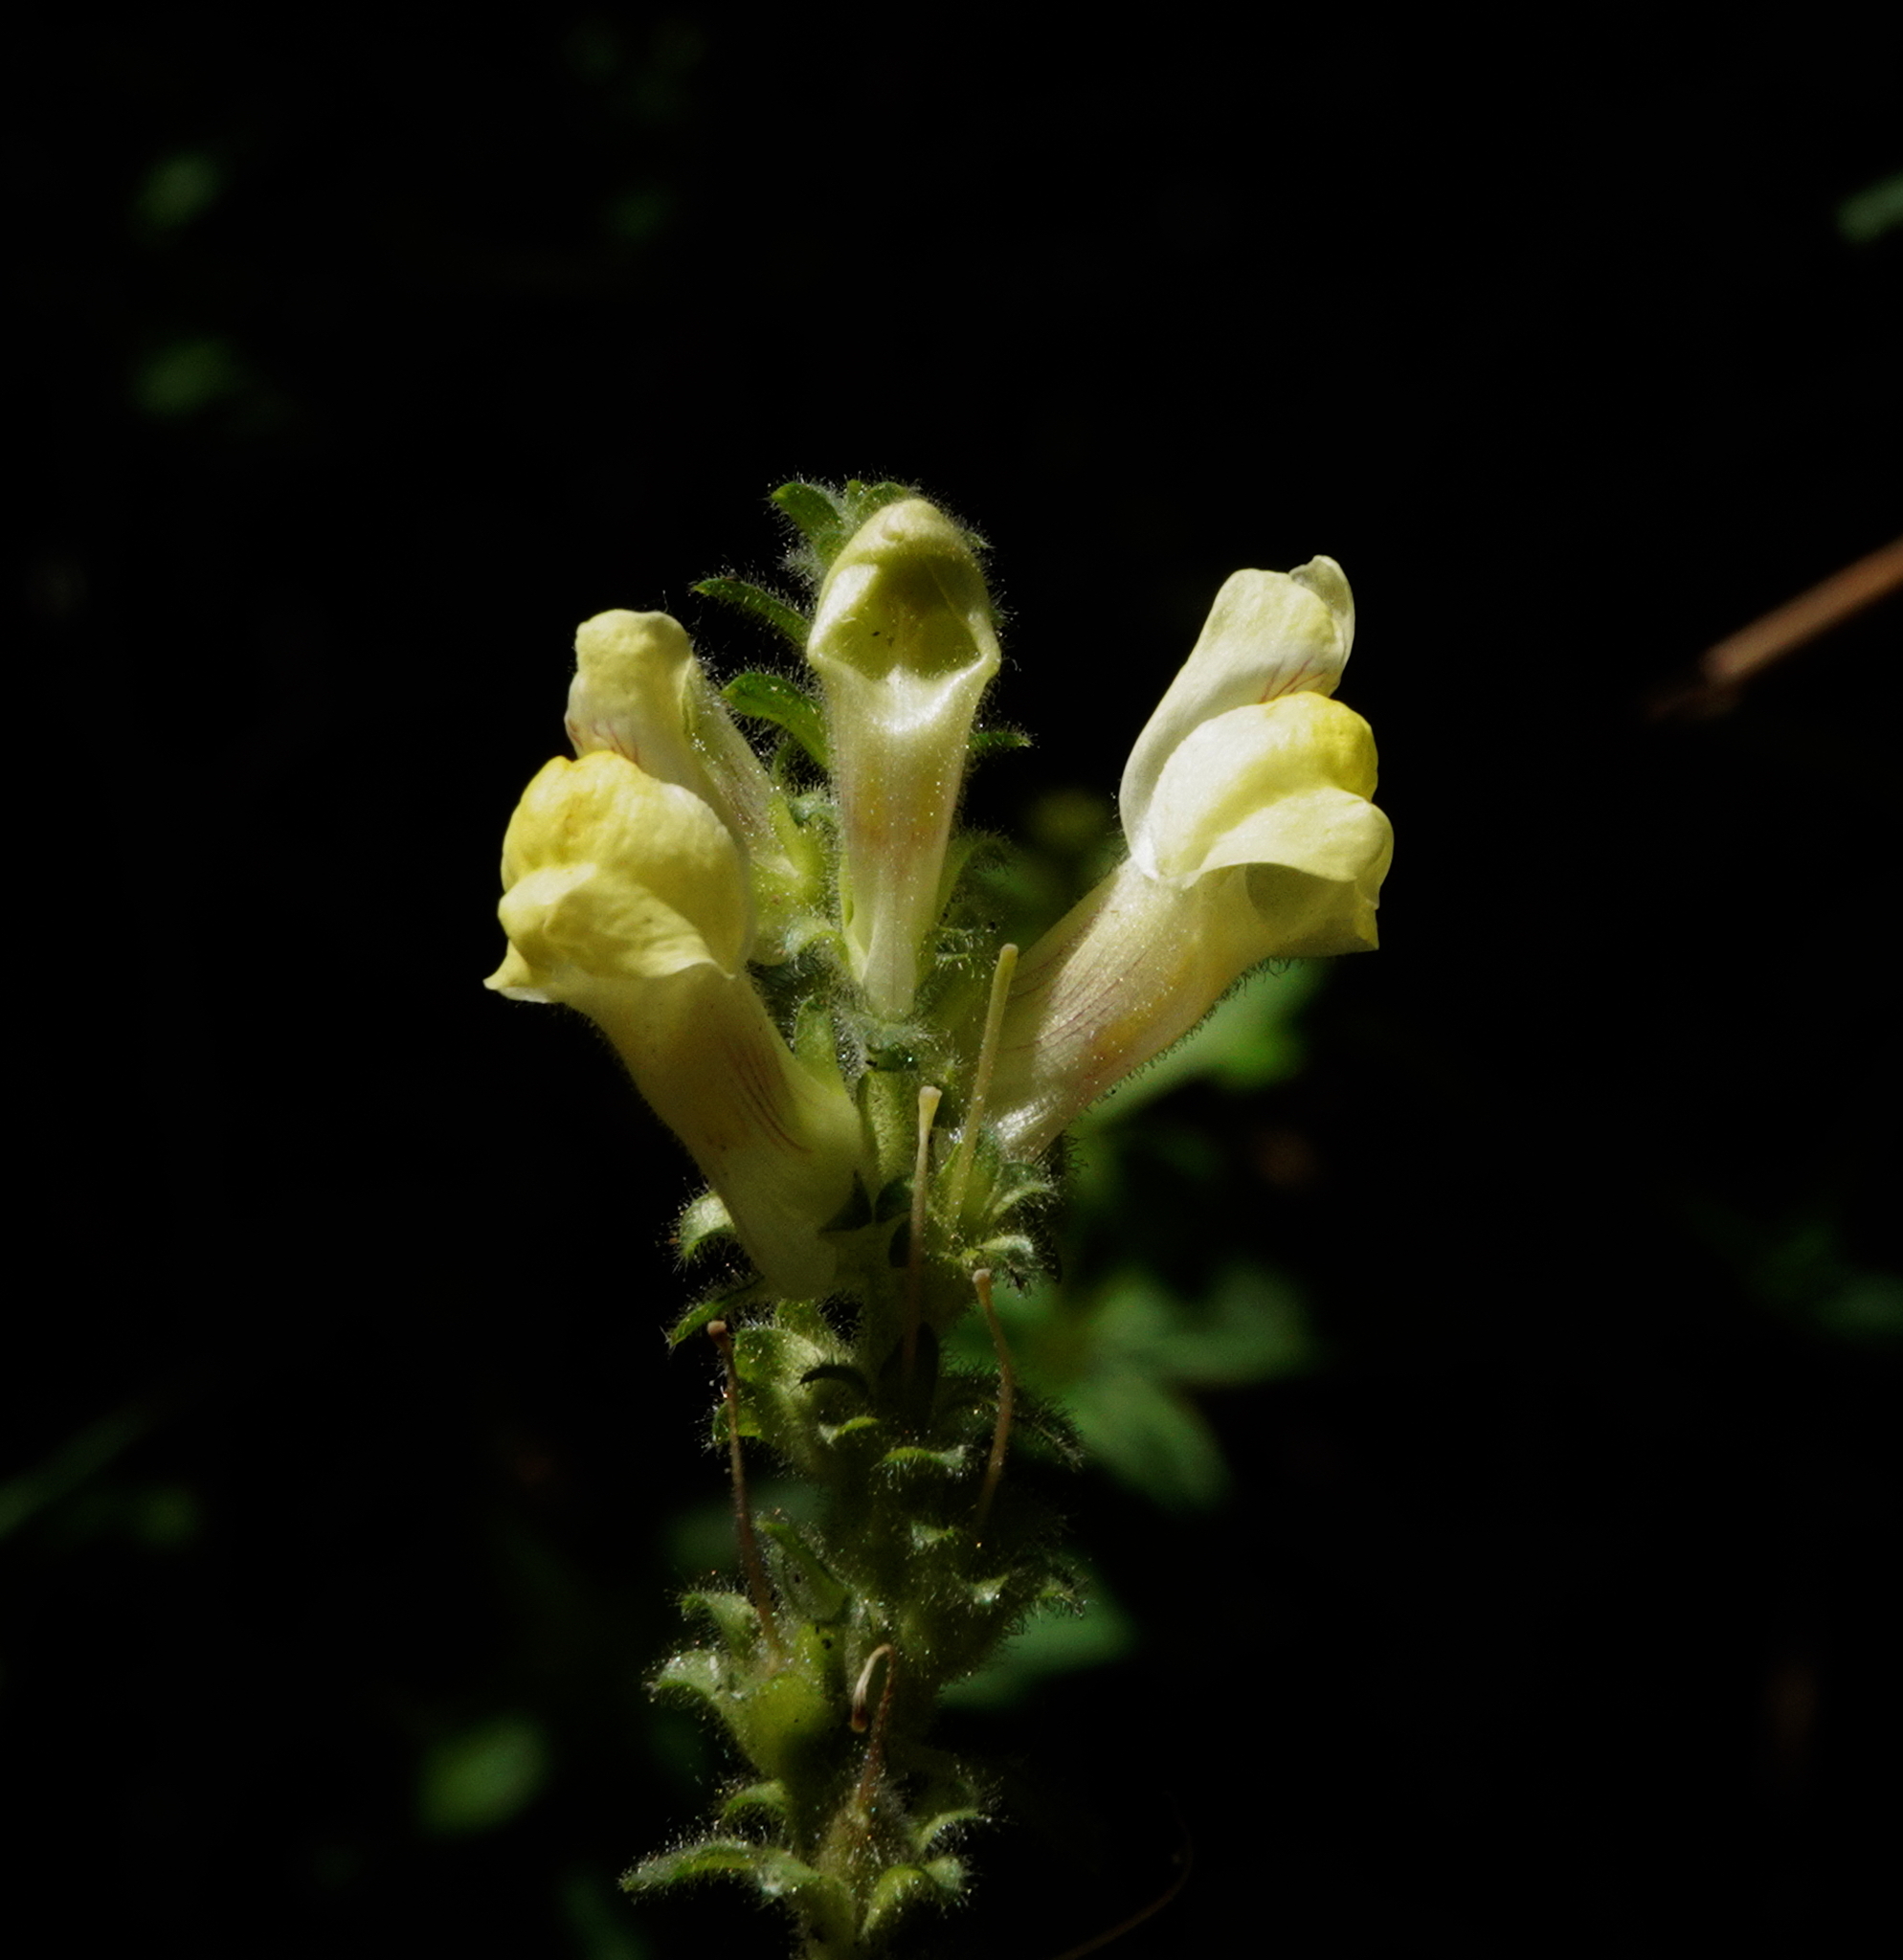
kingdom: Plantae
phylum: Tracheophyta
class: Magnoliopsida
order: Lamiales
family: Plantaginaceae
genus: Antirrhinum
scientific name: Antirrhinum meonanthum
